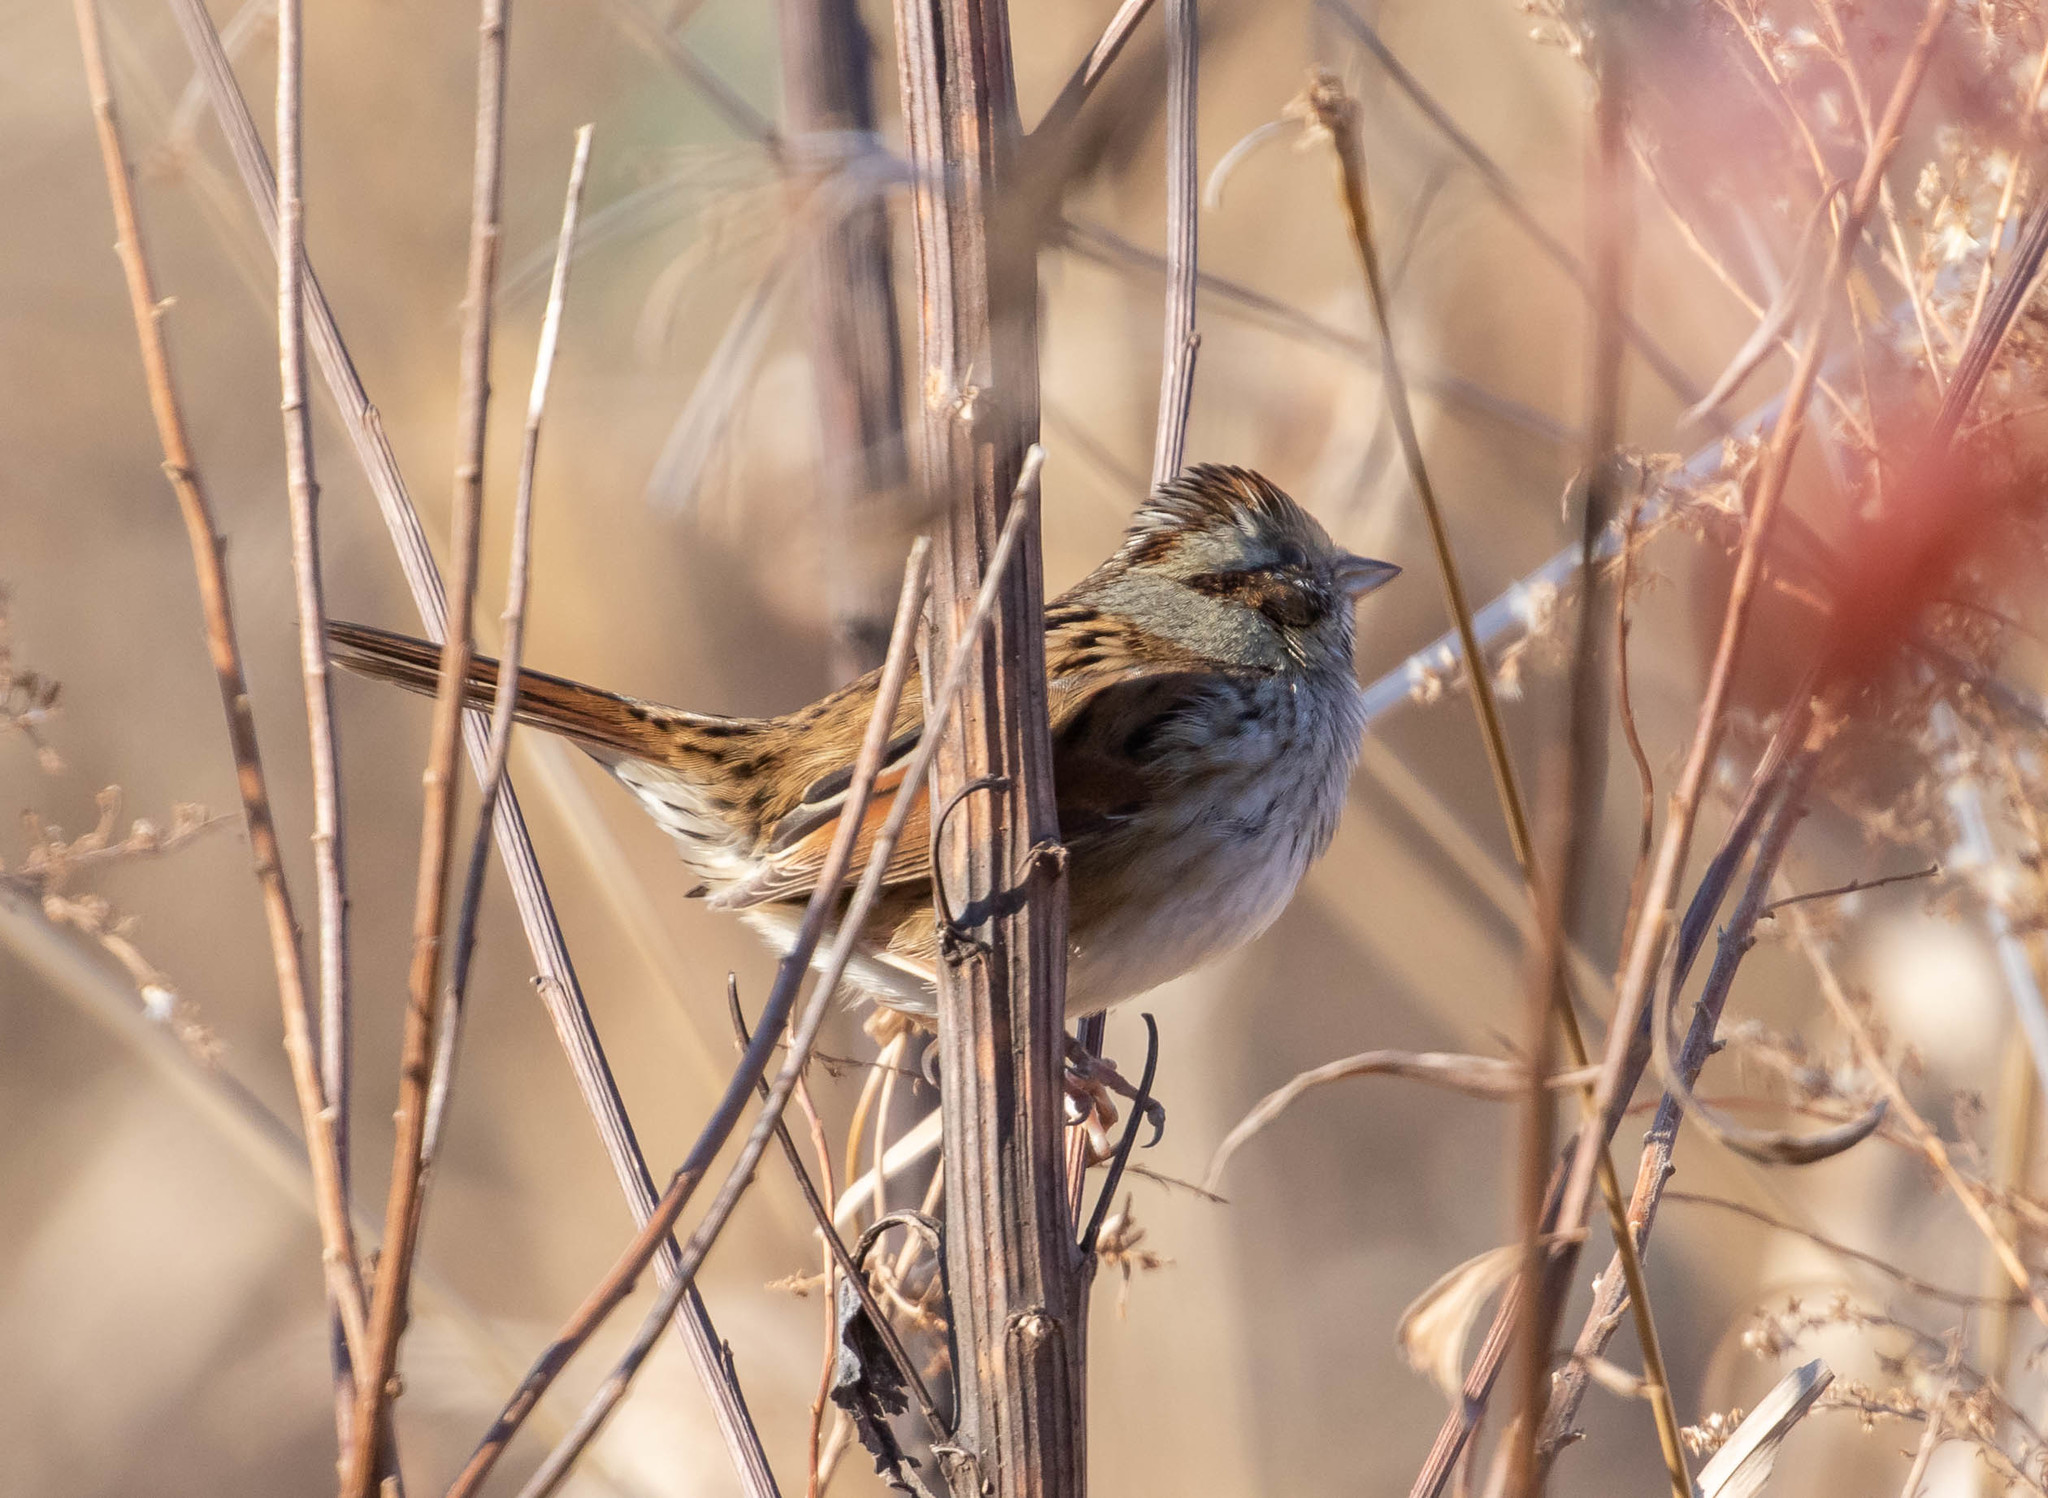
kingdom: Animalia
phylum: Chordata
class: Aves
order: Passeriformes
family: Passerellidae
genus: Melospiza
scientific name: Melospiza georgiana
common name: Swamp sparrow
